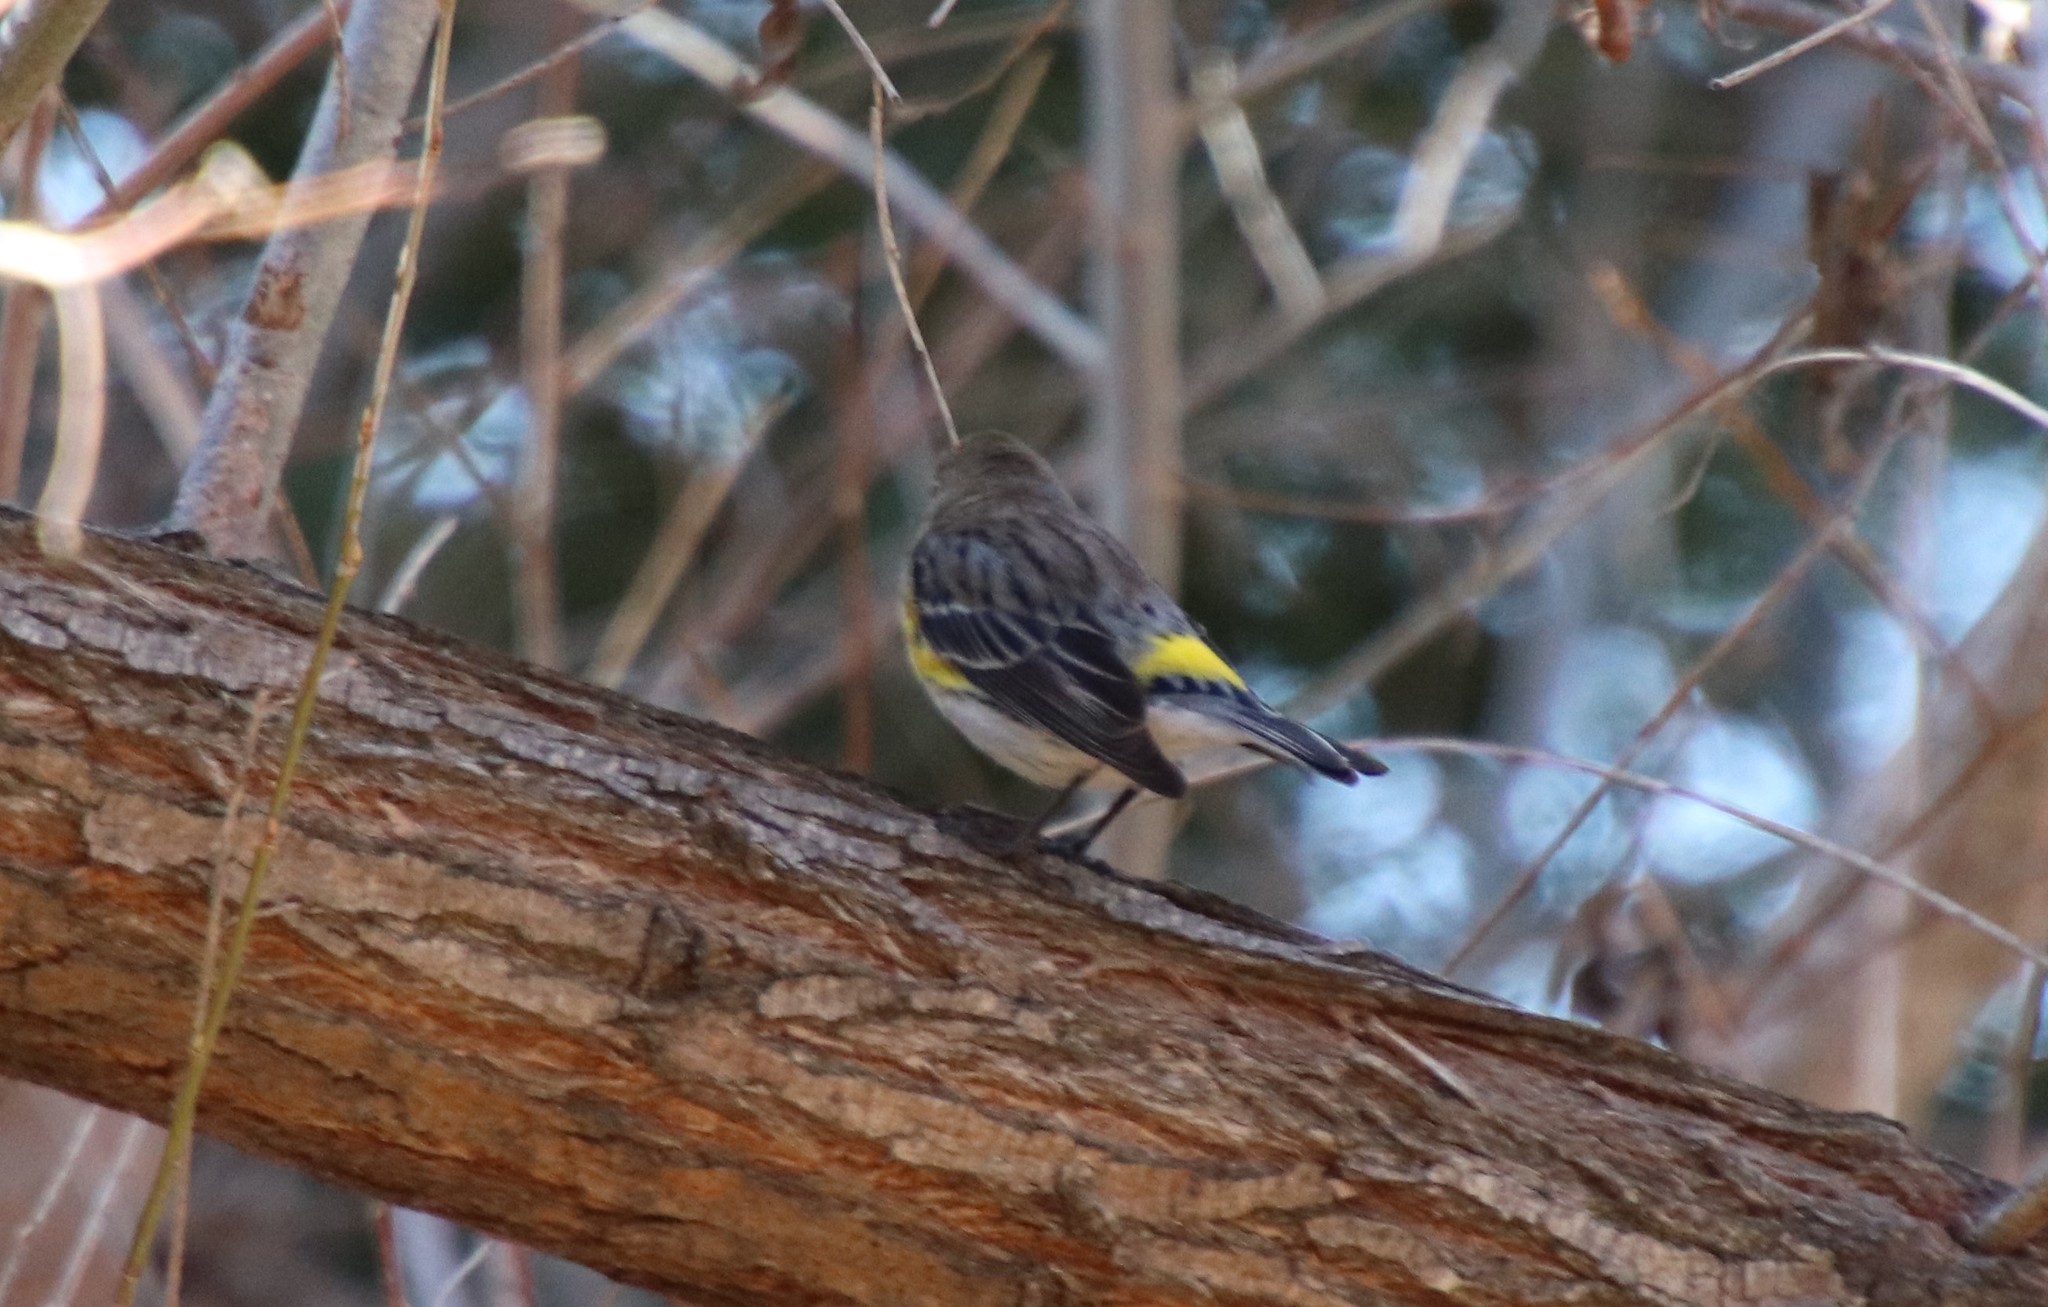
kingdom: Animalia
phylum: Chordata
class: Aves
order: Passeriformes
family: Parulidae
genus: Setophaga
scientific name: Setophaga coronata
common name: Myrtle warbler
